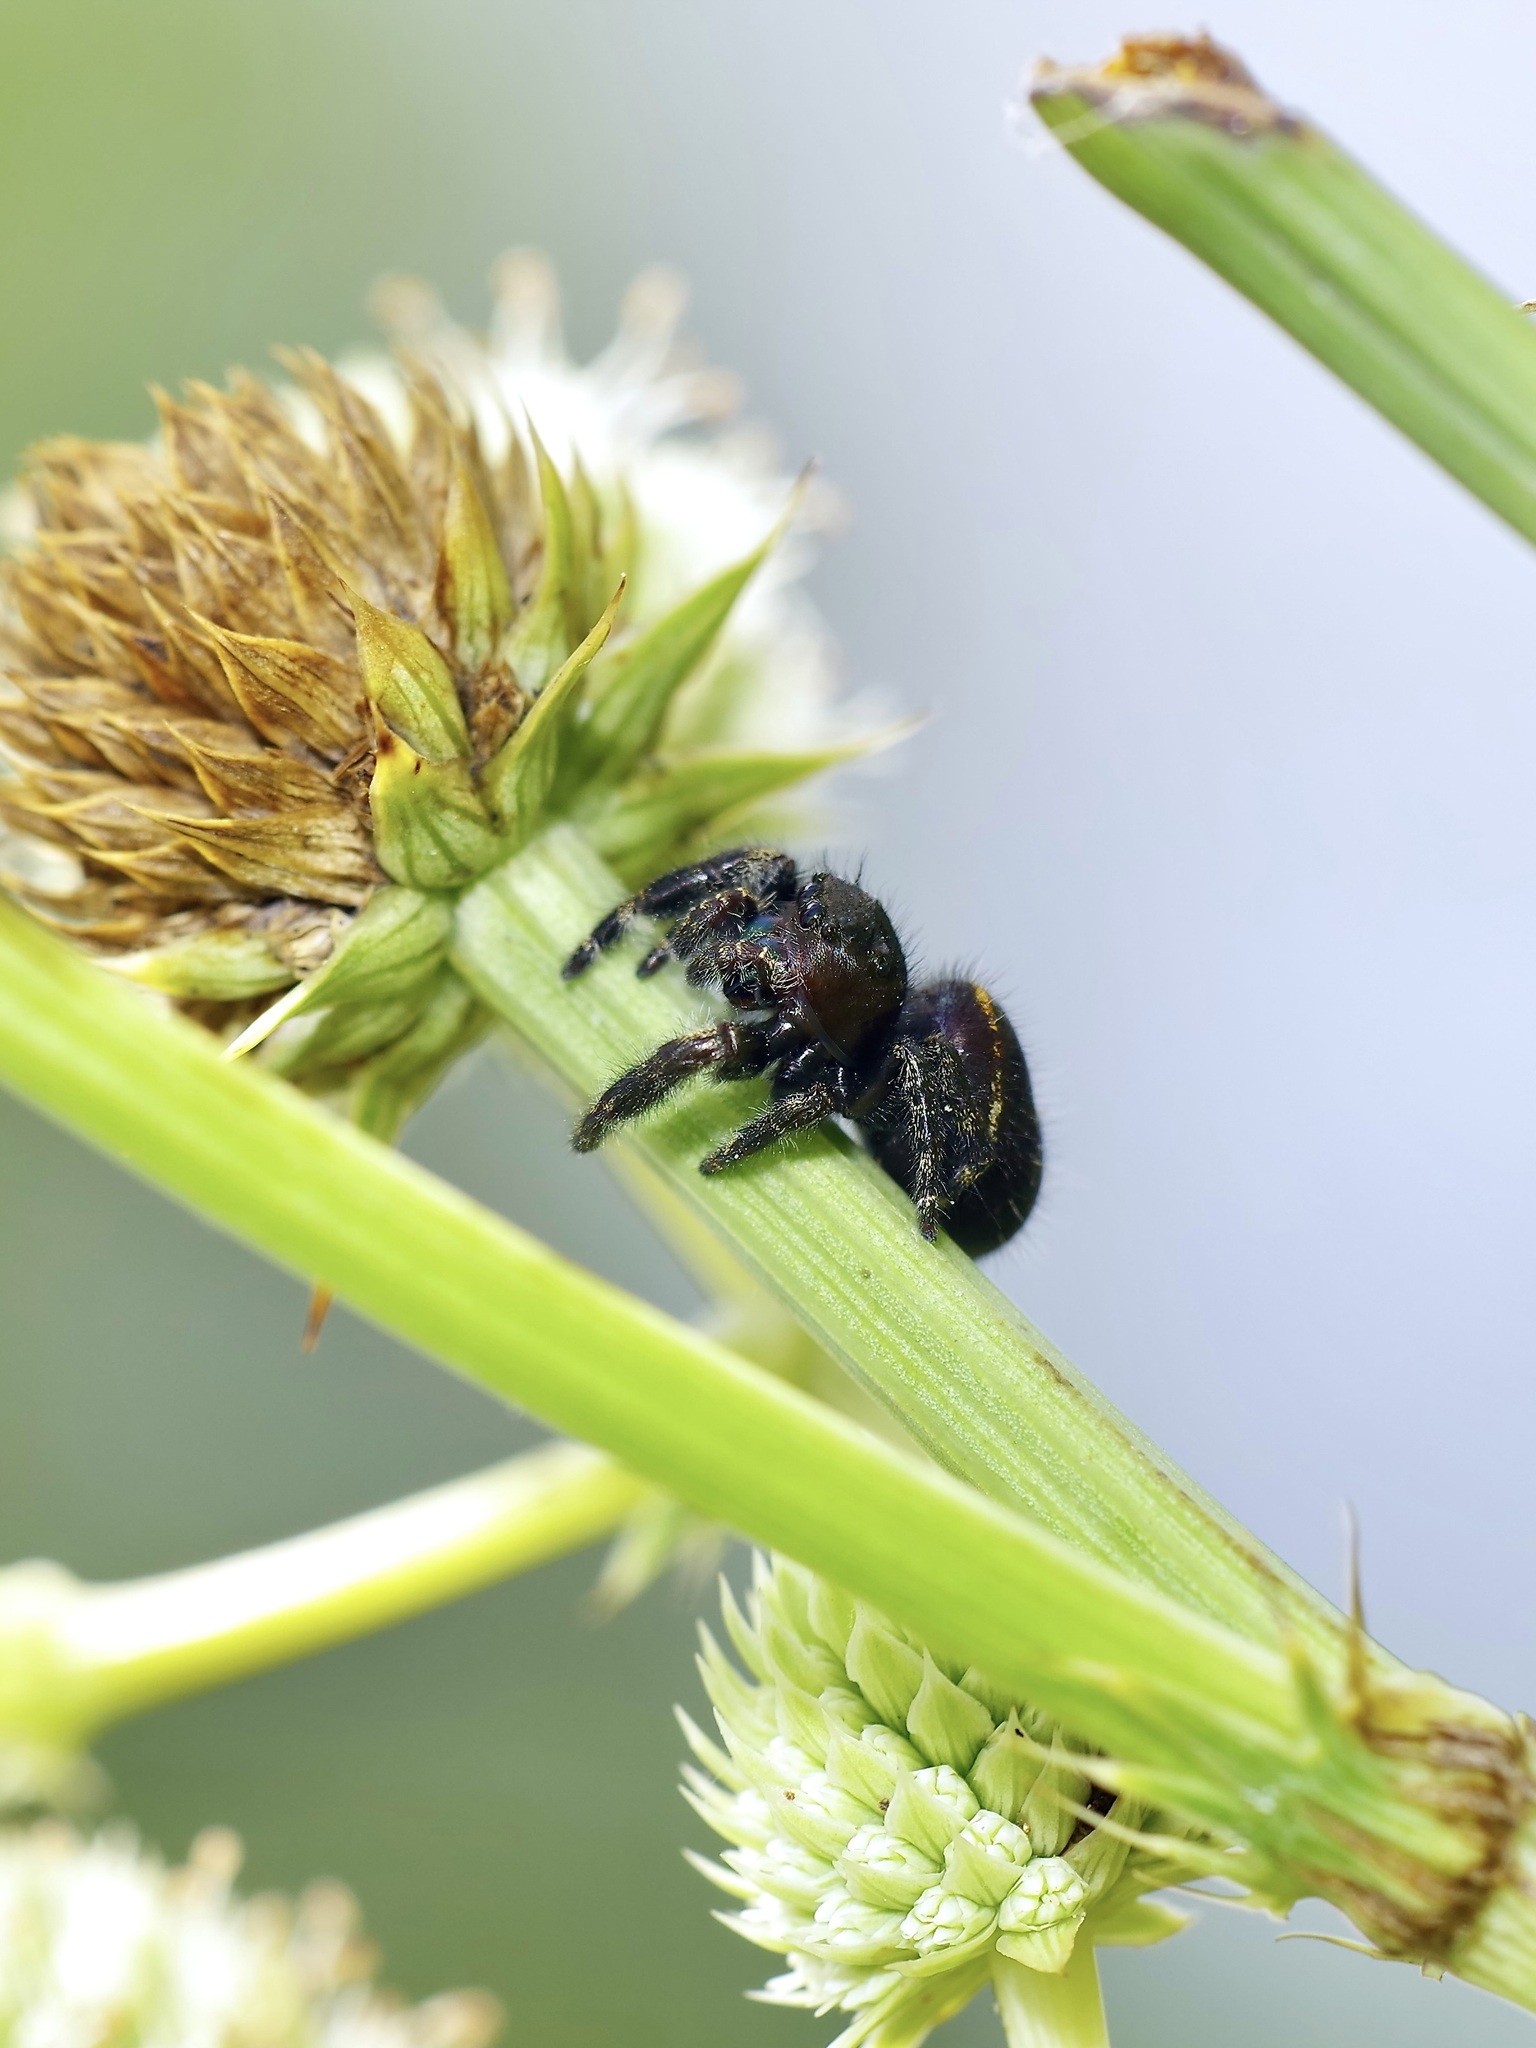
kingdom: Animalia
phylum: Arthropoda
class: Arachnida
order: Araneae
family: Salticidae
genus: Phidippus
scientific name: Phidippus audax
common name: Bold jumper
